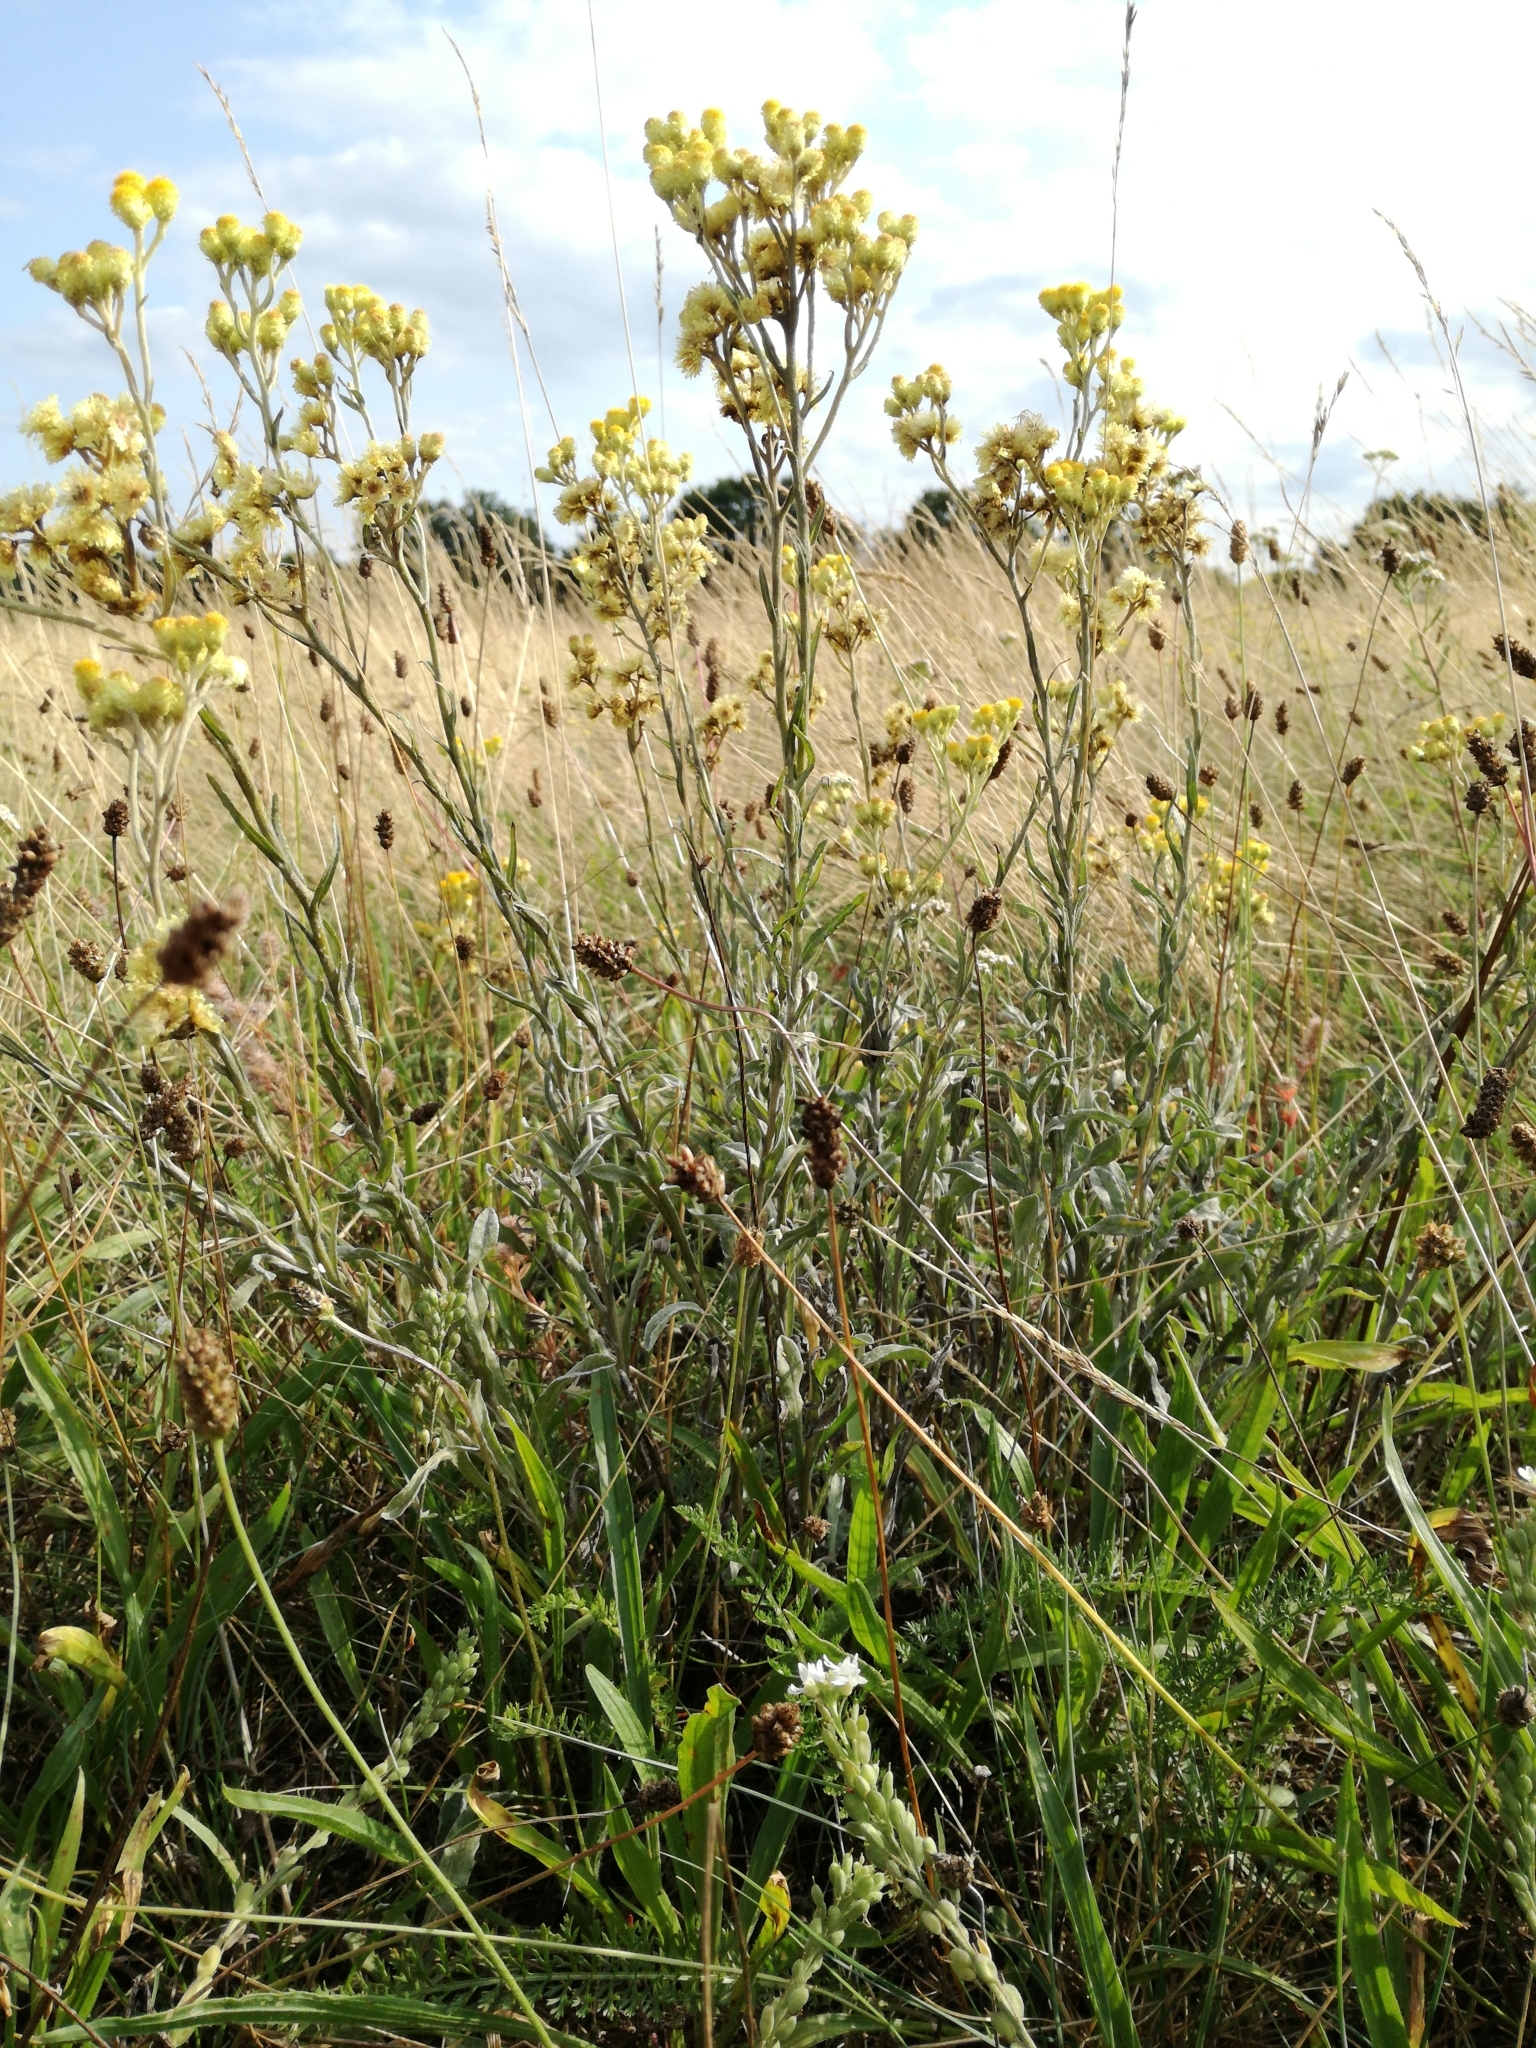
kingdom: Plantae
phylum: Tracheophyta
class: Magnoliopsida
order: Asterales
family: Asteraceae
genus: Helichrysum
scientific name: Helichrysum arenarium
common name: Strawflower
